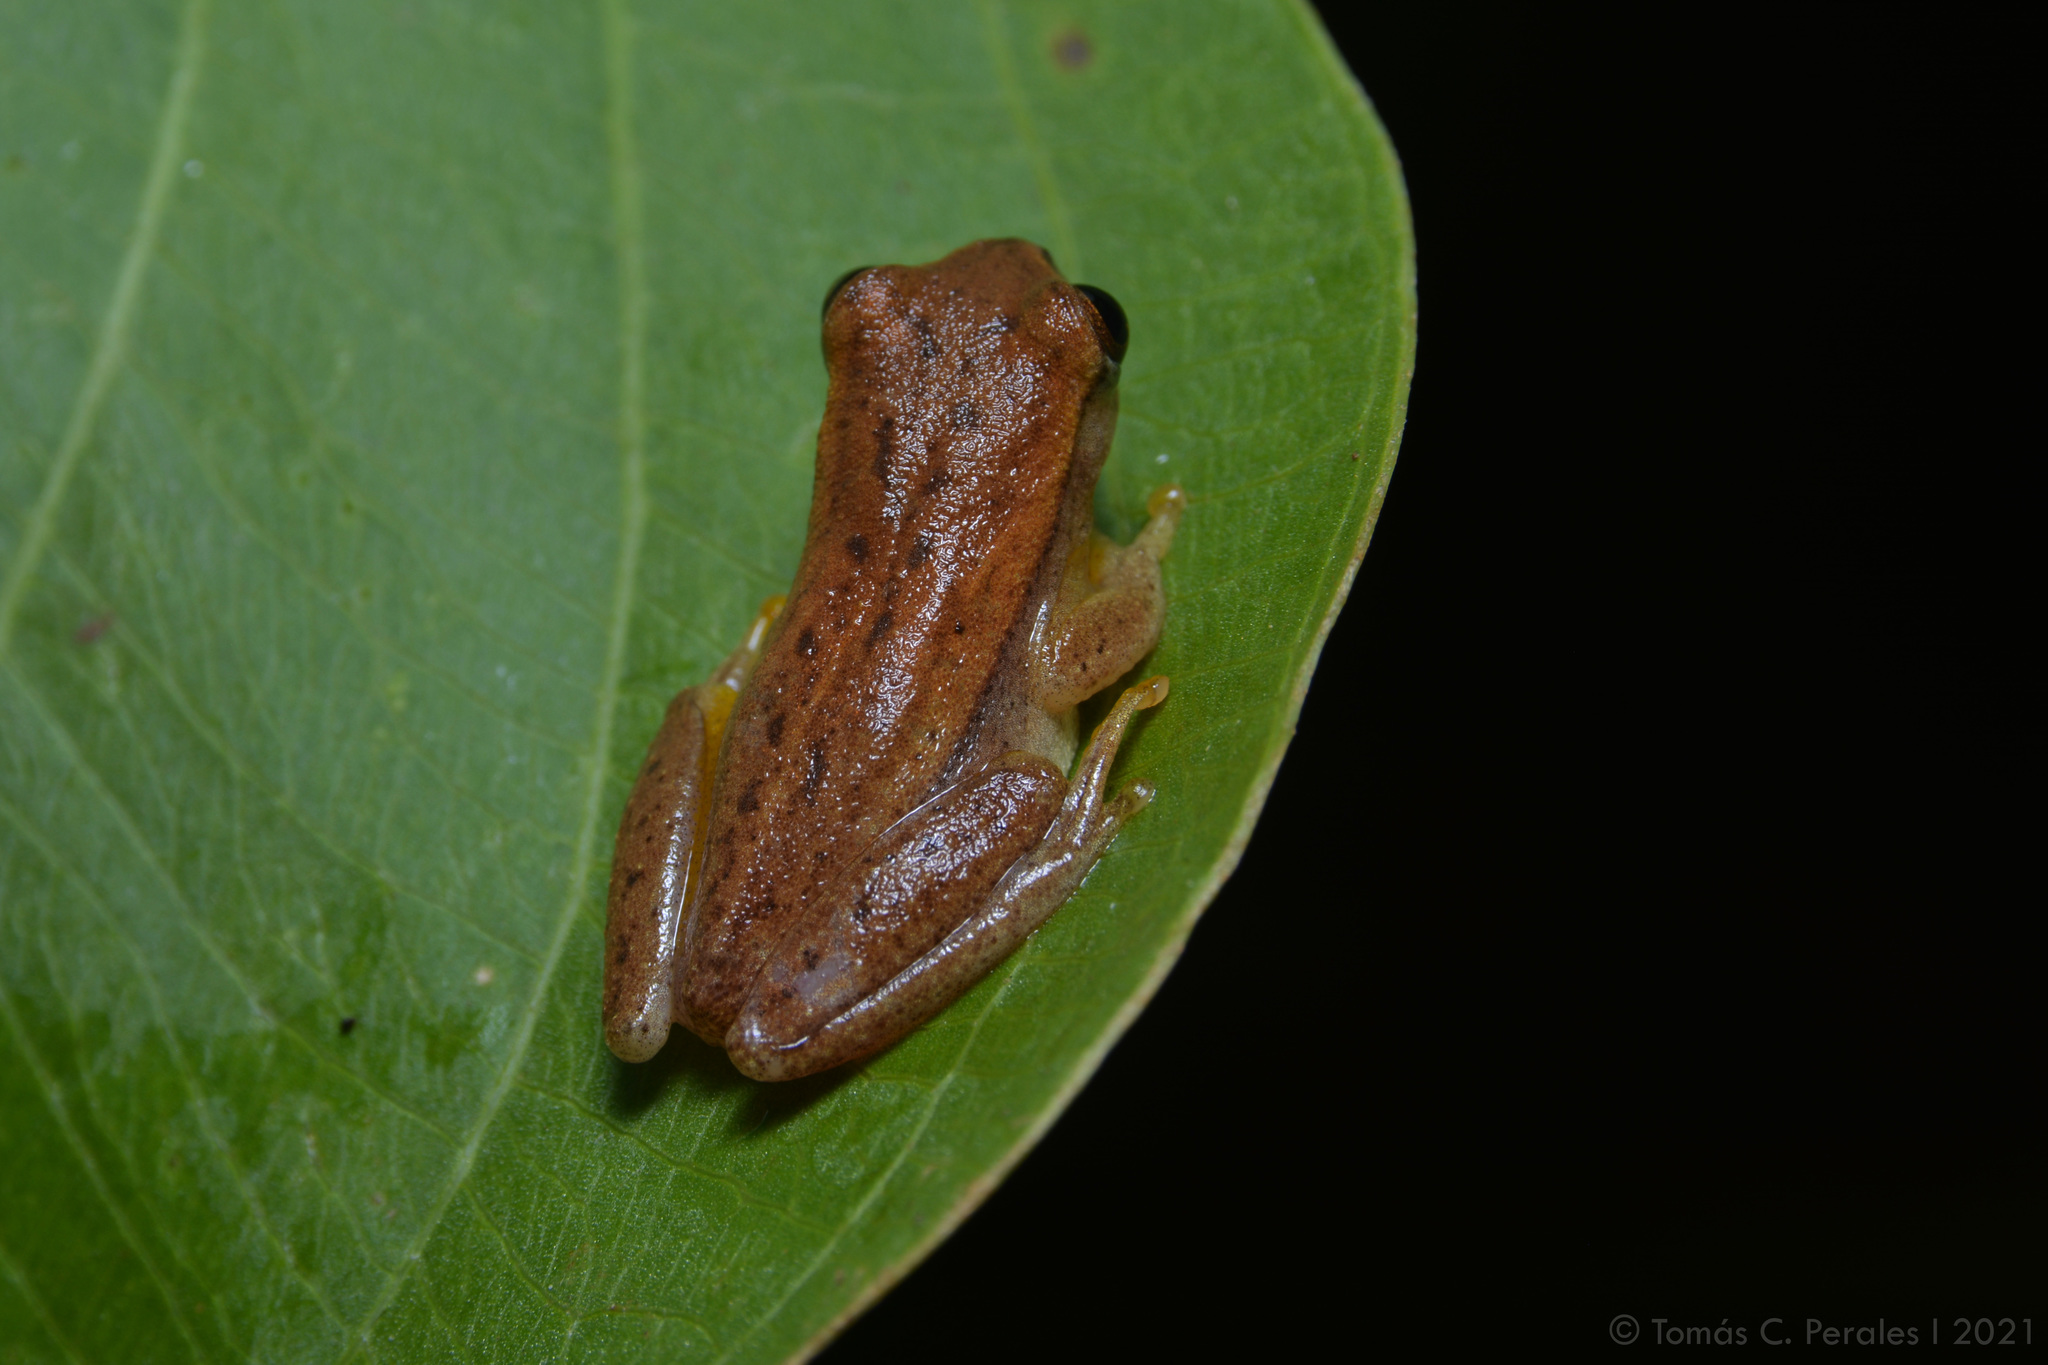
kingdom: Animalia
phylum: Chordata
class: Amphibia
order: Anura
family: Hylidae
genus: Dendropsophus
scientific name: Dendropsophus
